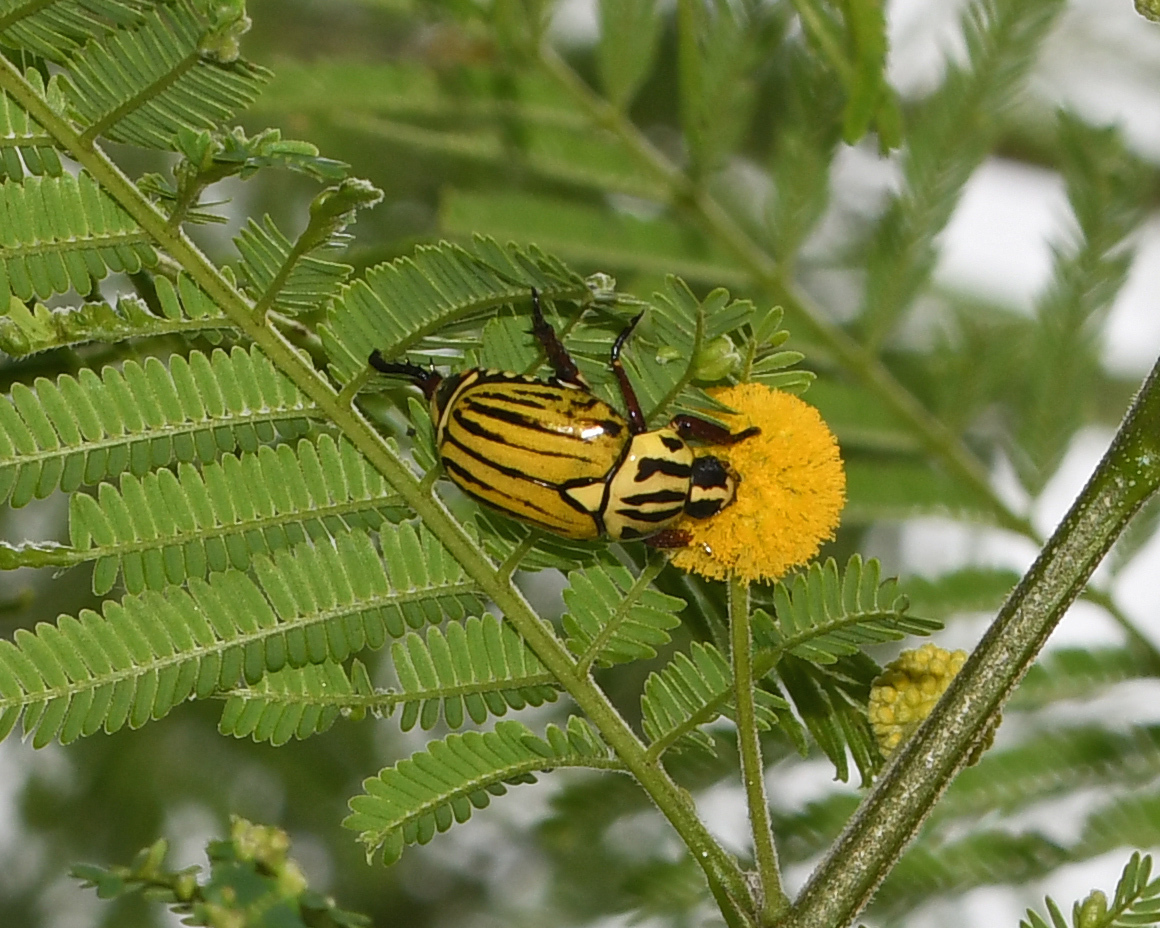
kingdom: Animalia
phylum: Arthropoda
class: Insecta
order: Coleoptera
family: Scarabaeidae
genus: Rutela
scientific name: Rutela dorcyi
